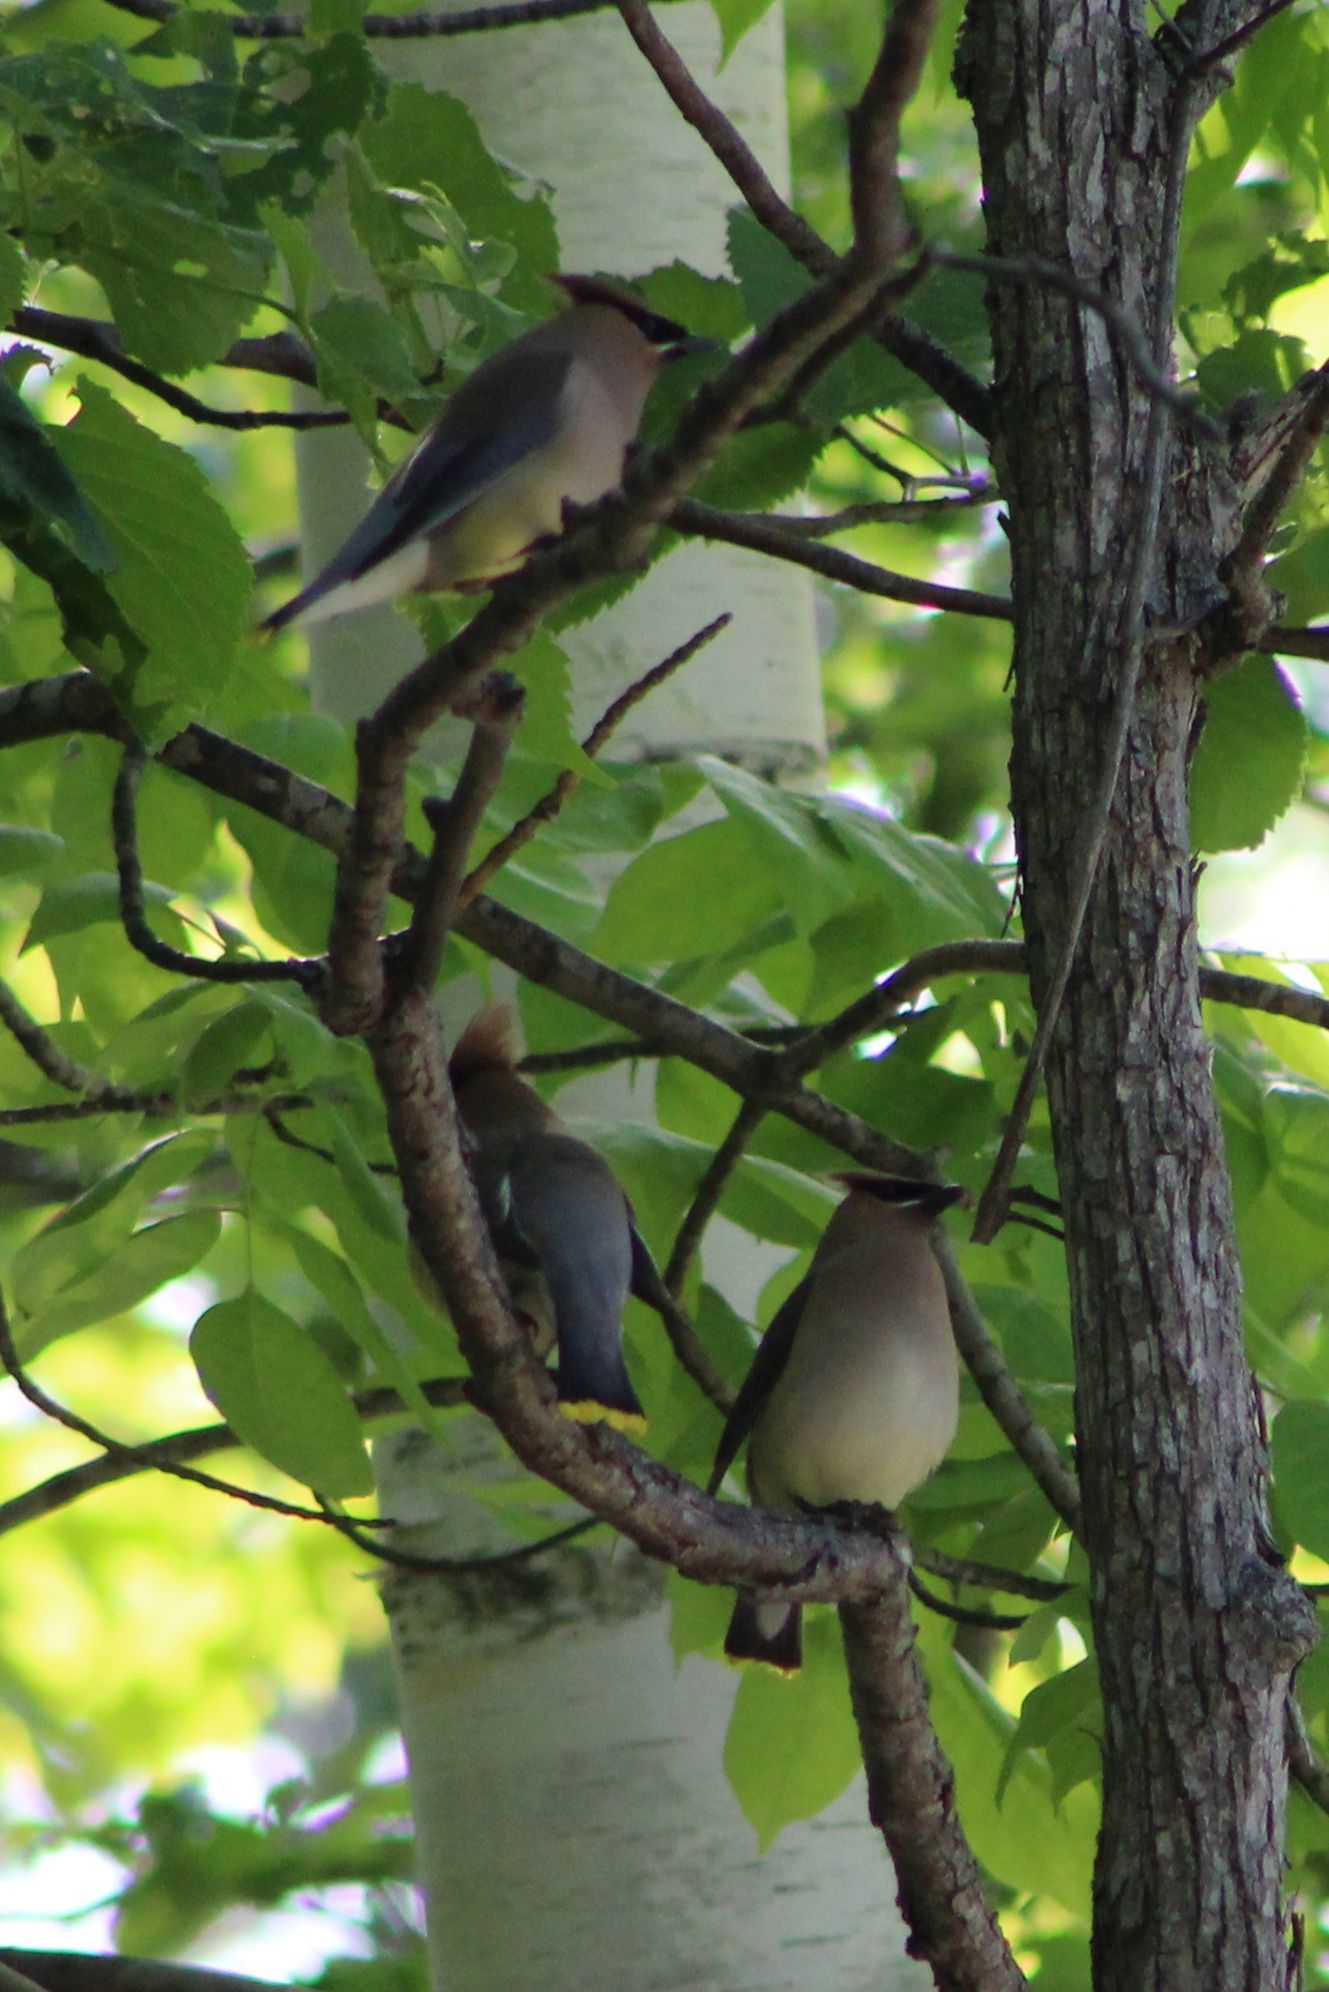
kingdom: Animalia
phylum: Chordata
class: Aves
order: Passeriformes
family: Bombycillidae
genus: Bombycilla
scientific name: Bombycilla cedrorum
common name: Cedar waxwing
